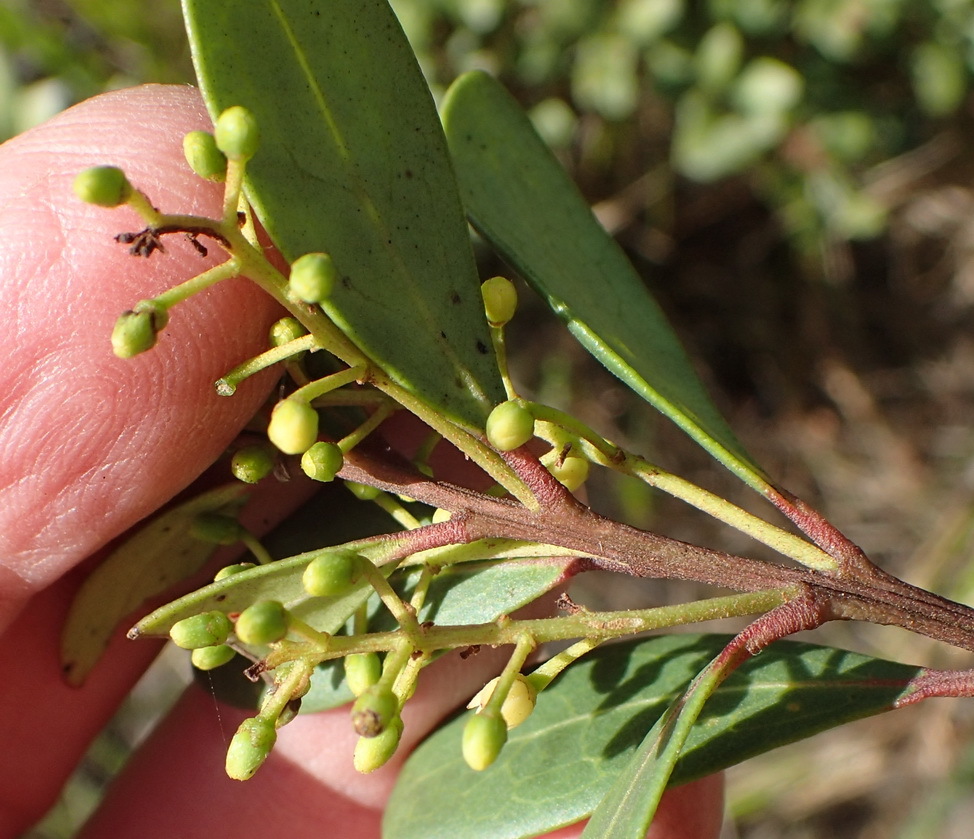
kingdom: Plantae
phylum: Tracheophyta
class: Magnoliopsida
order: Ericales
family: Ebenaceae
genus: Euclea
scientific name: Euclea racemosa
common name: Dune guarri
